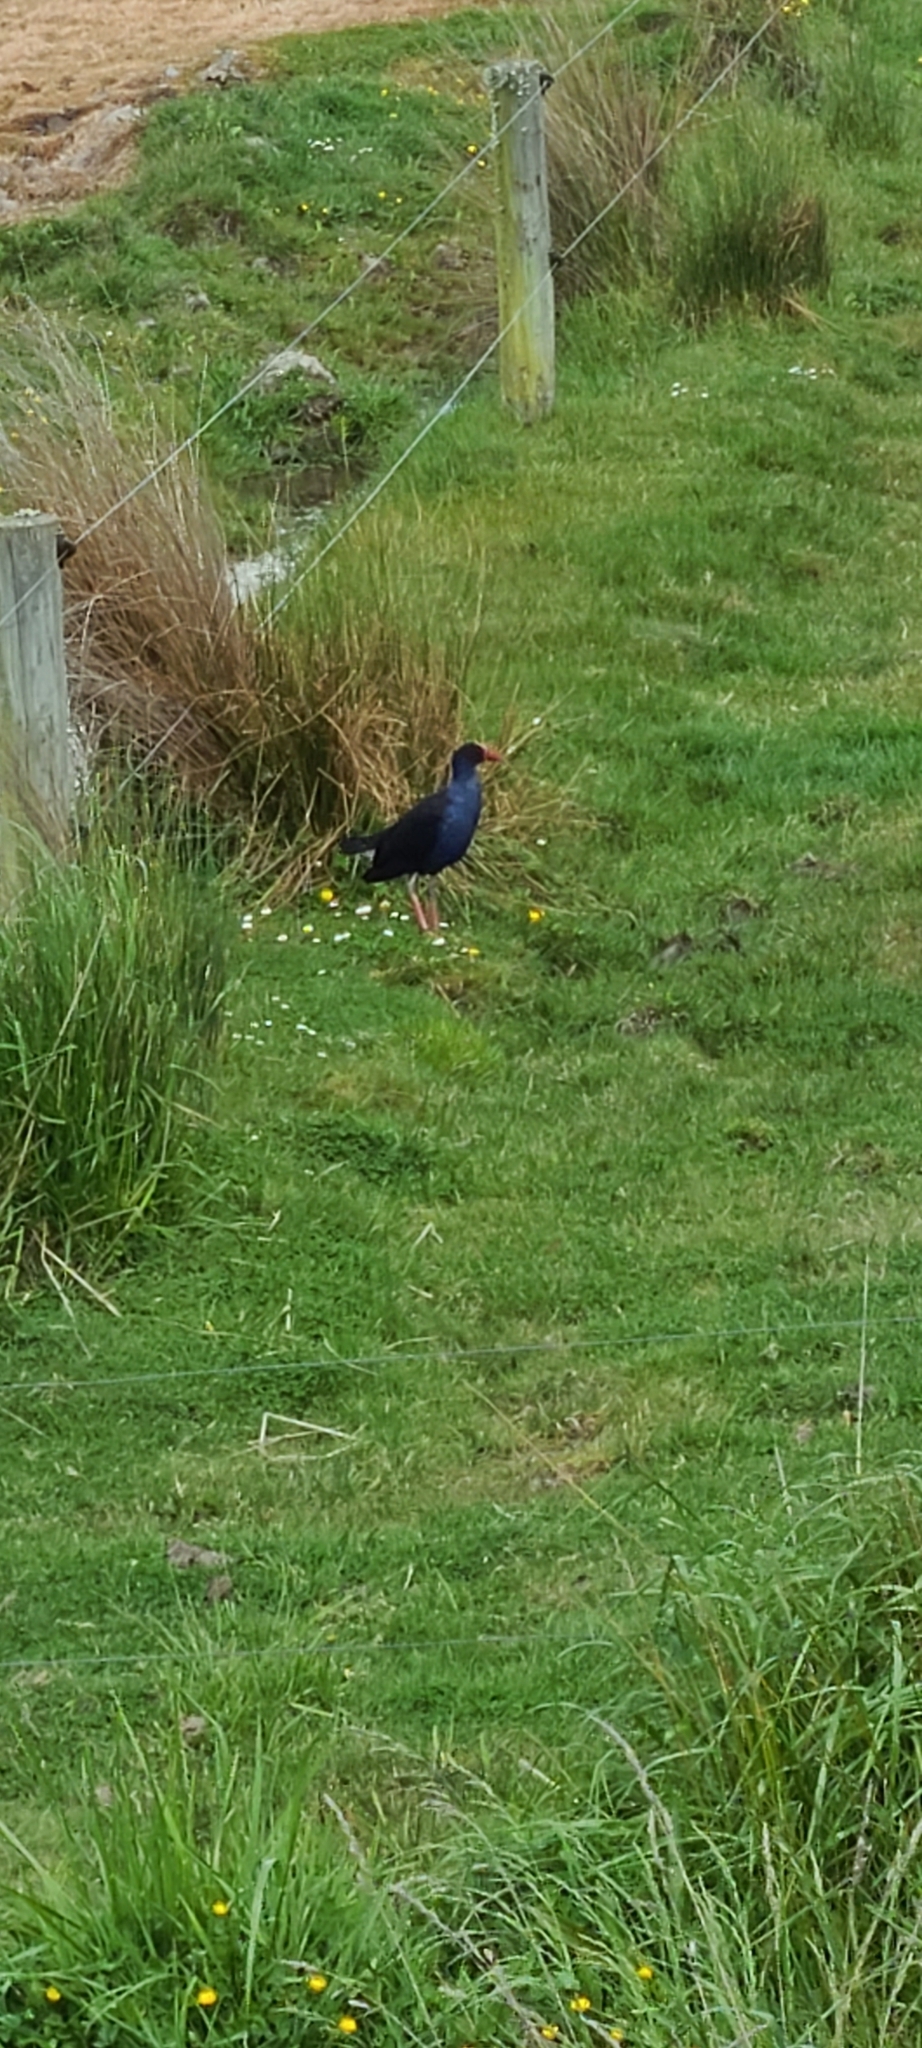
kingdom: Animalia
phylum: Chordata
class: Aves
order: Gruiformes
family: Rallidae
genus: Porphyrio
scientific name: Porphyrio melanotus
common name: Australasian swamphen
